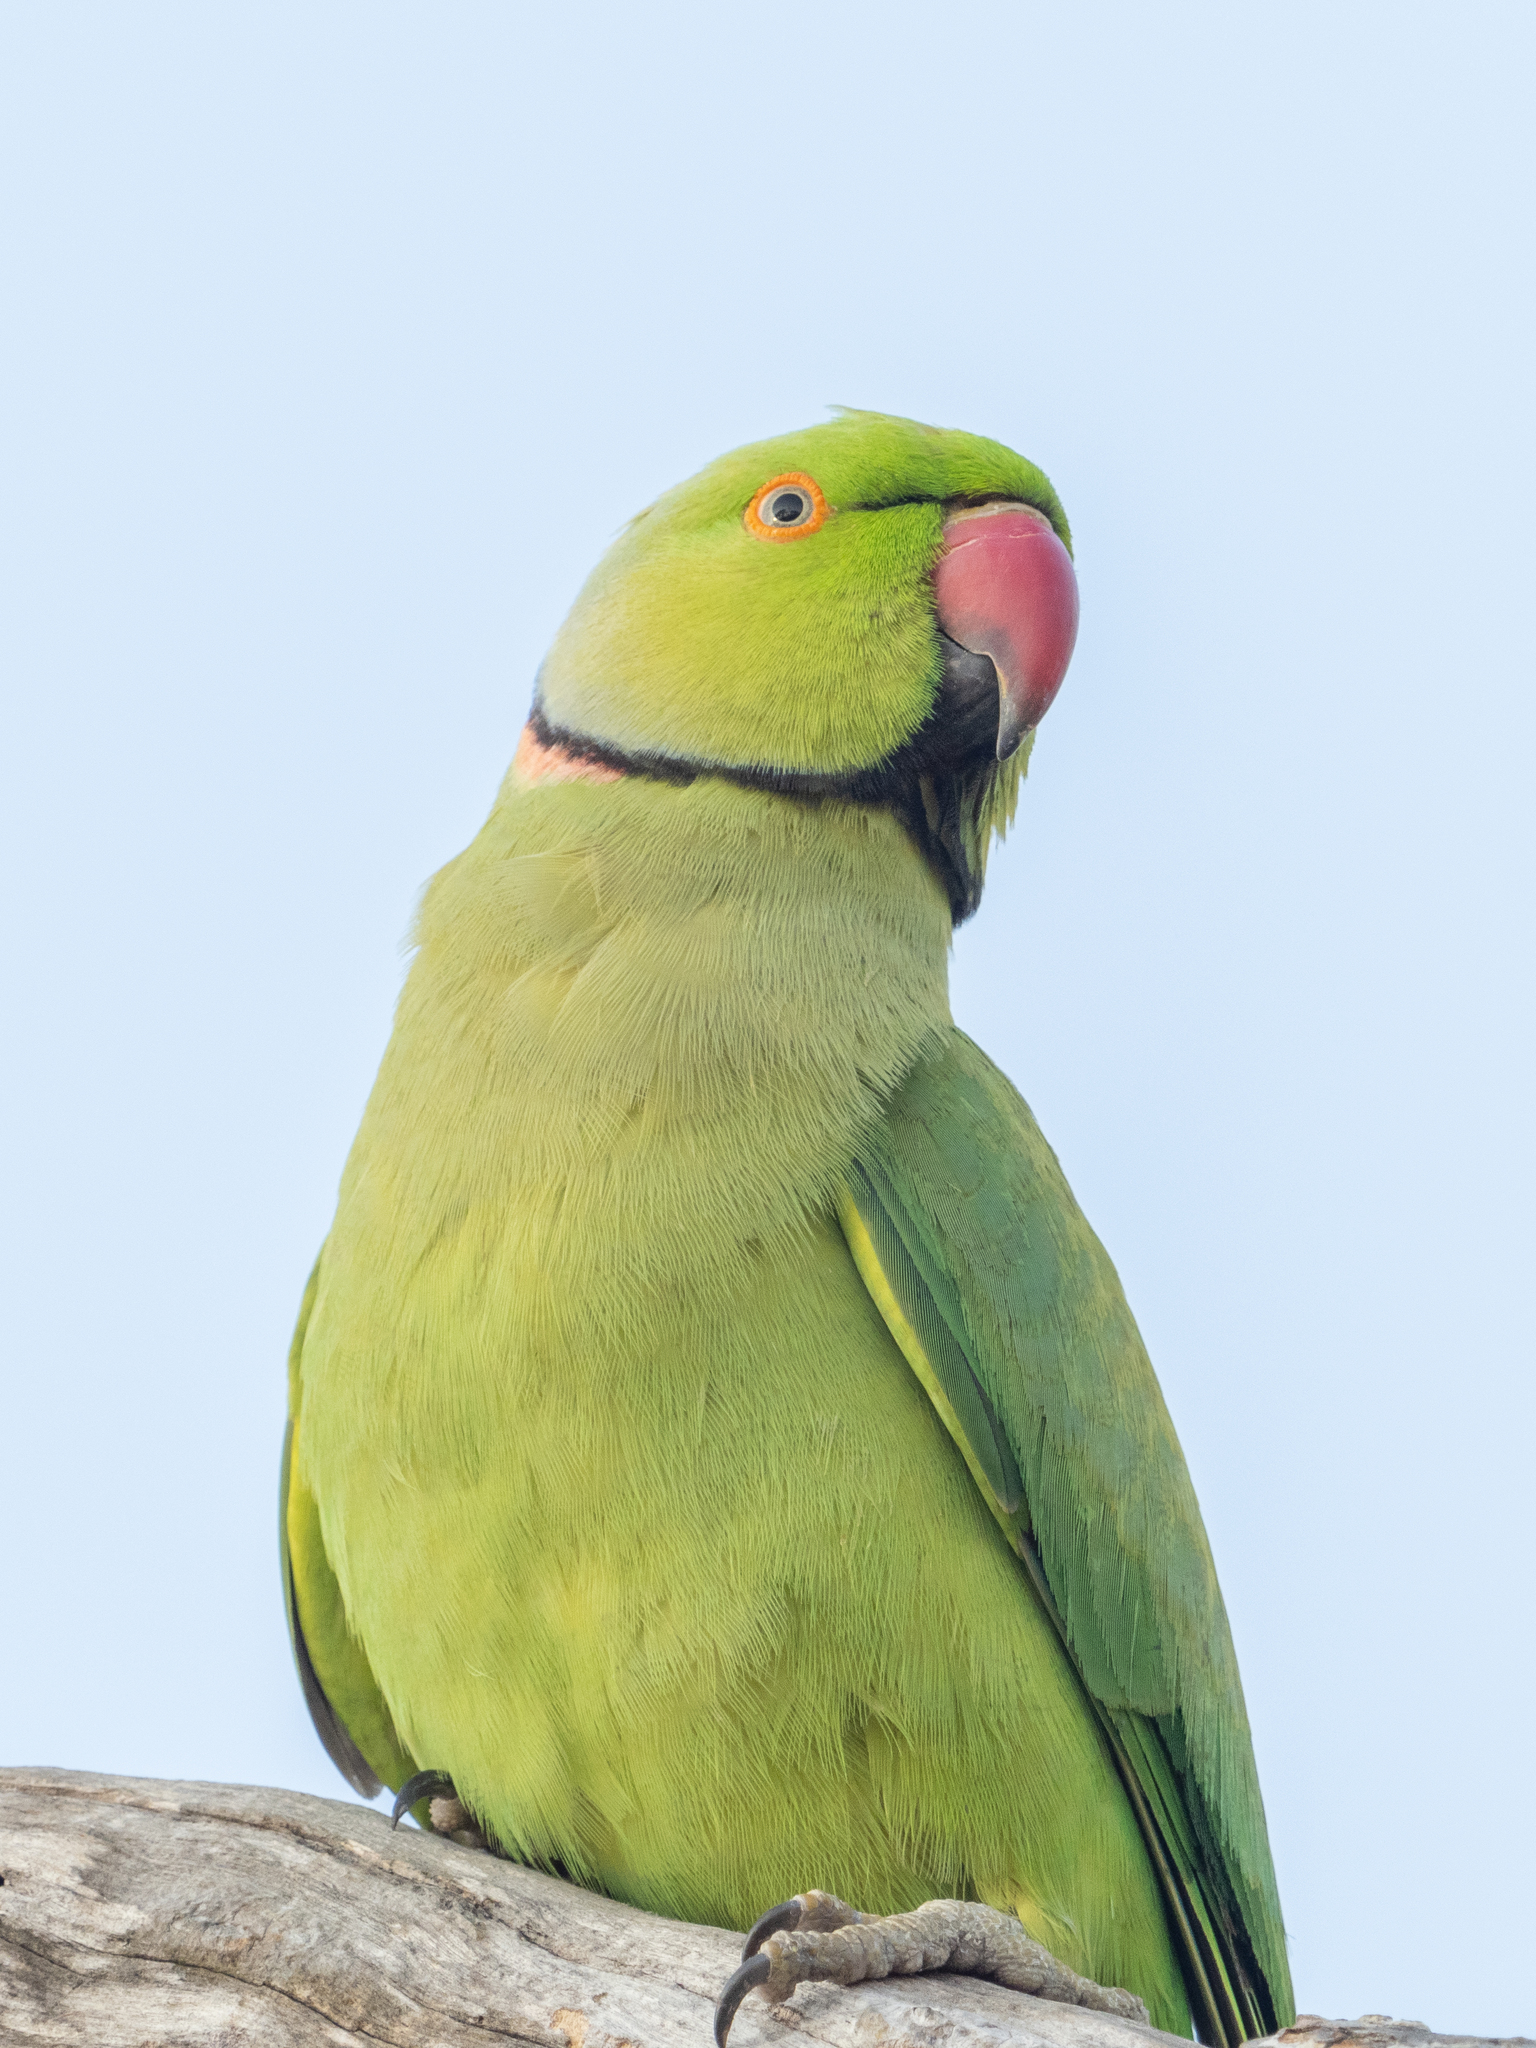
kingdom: Animalia
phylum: Chordata
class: Aves
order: Psittaciformes
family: Psittacidae
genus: Psittacula
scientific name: Psittacula krameri
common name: Rose-ringed parakeet
